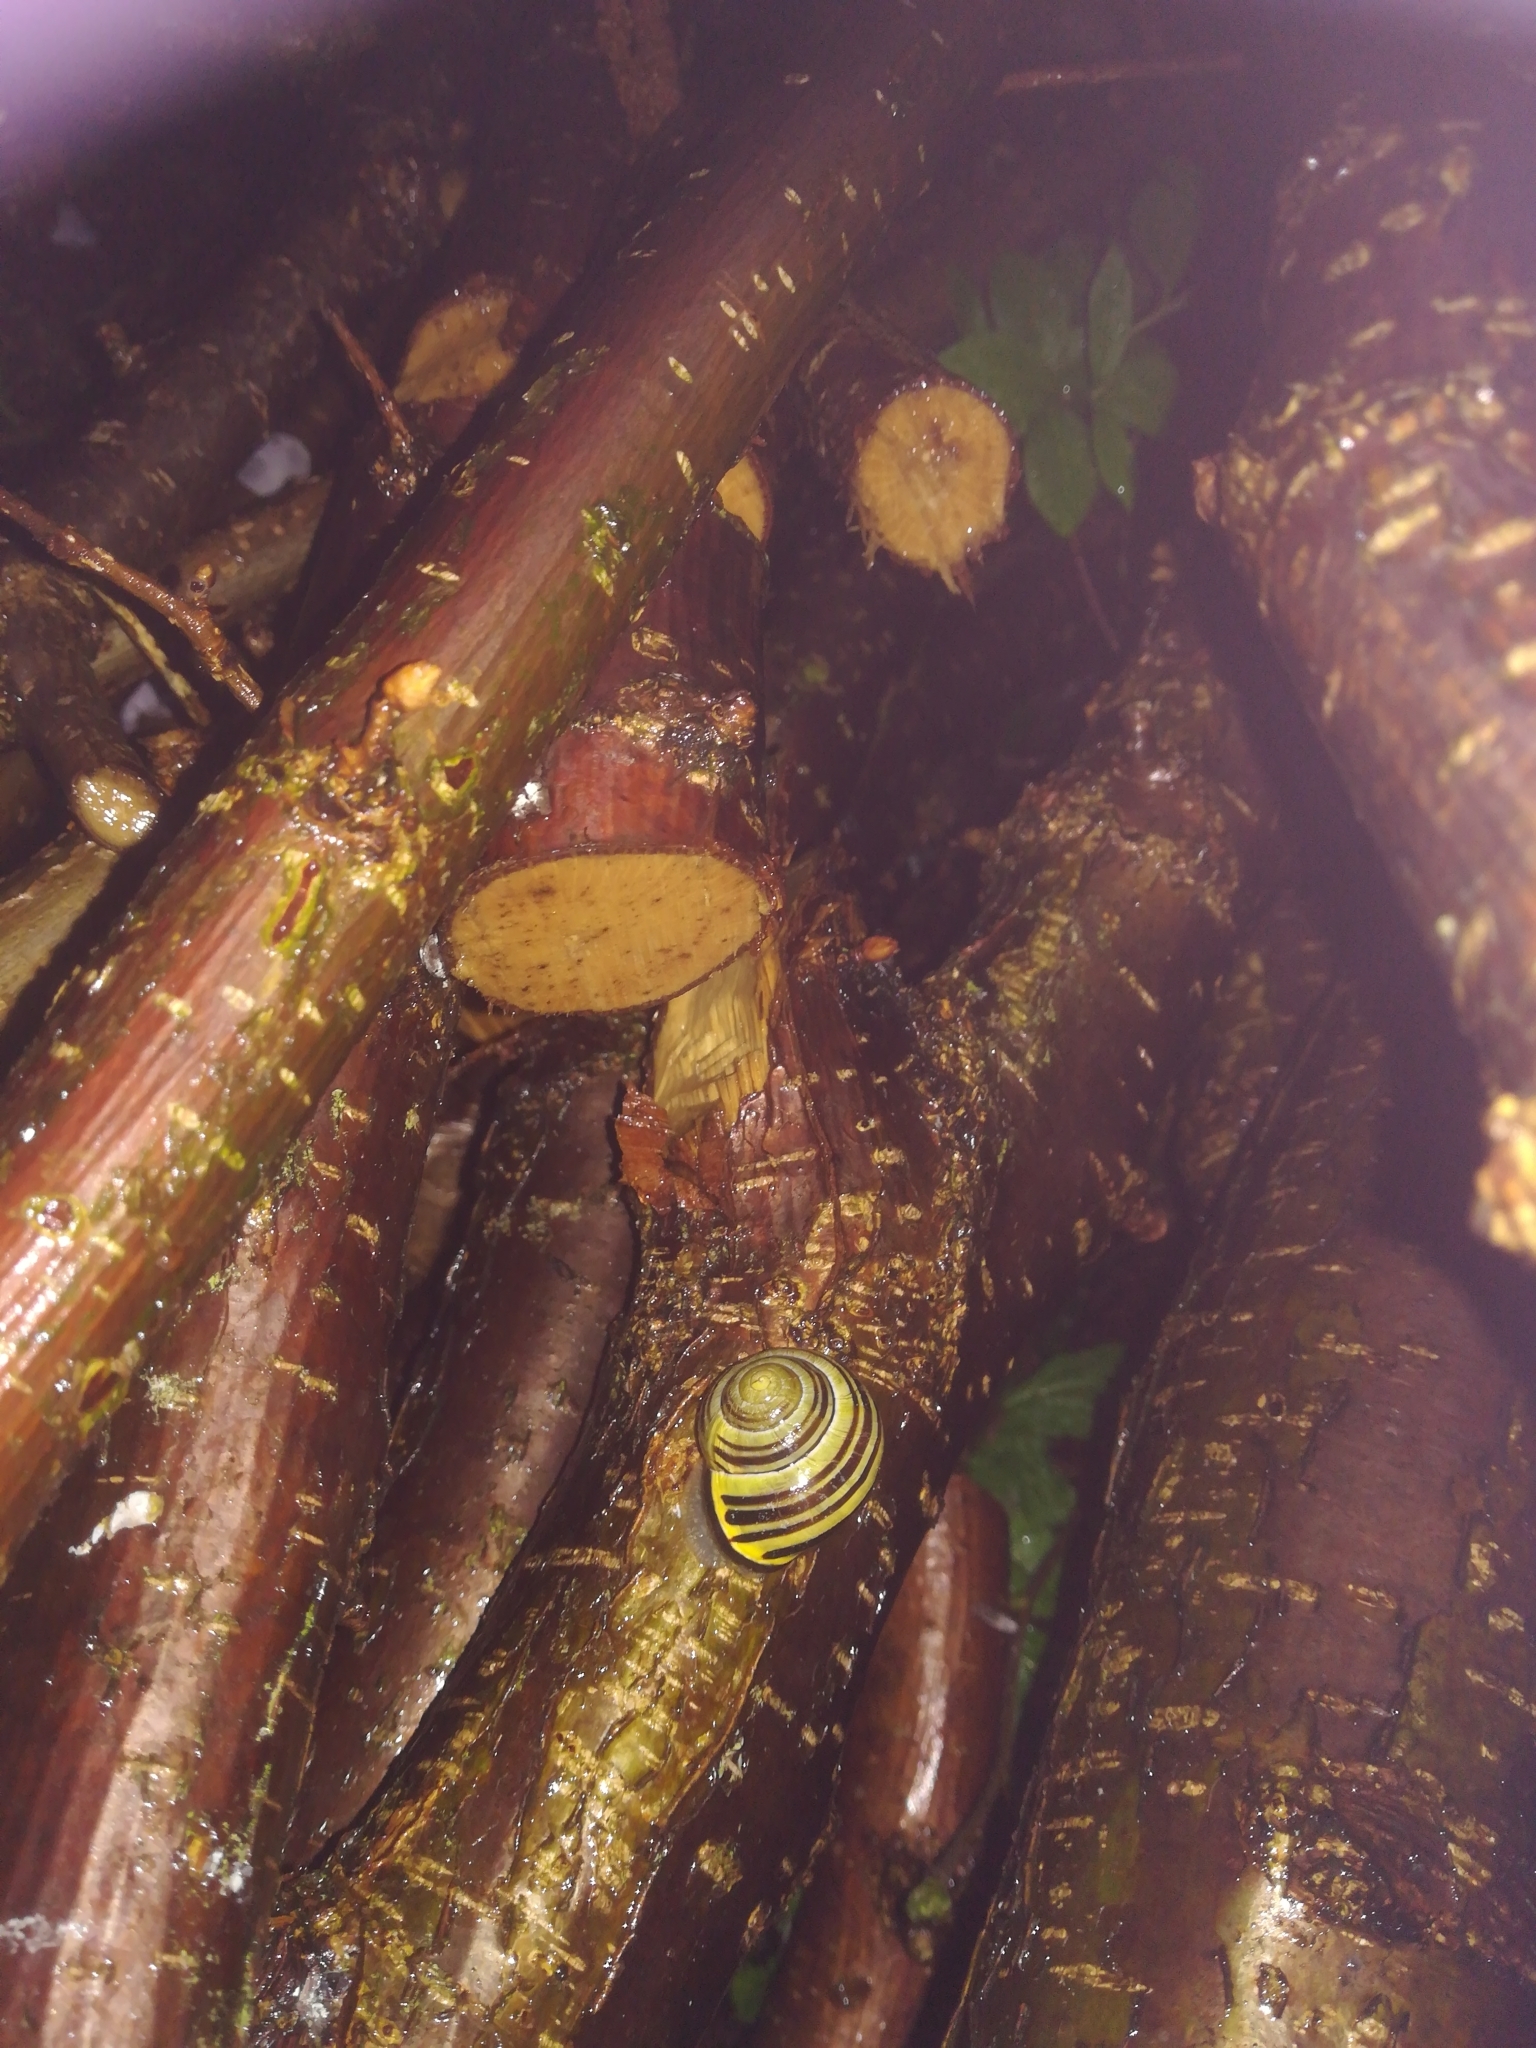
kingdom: Animalia
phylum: Mollusca
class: Gastropoda
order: Stylommatophora
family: Helicidae
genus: Cepaea
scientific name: Cepaea nemoralis
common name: Grovesnail
